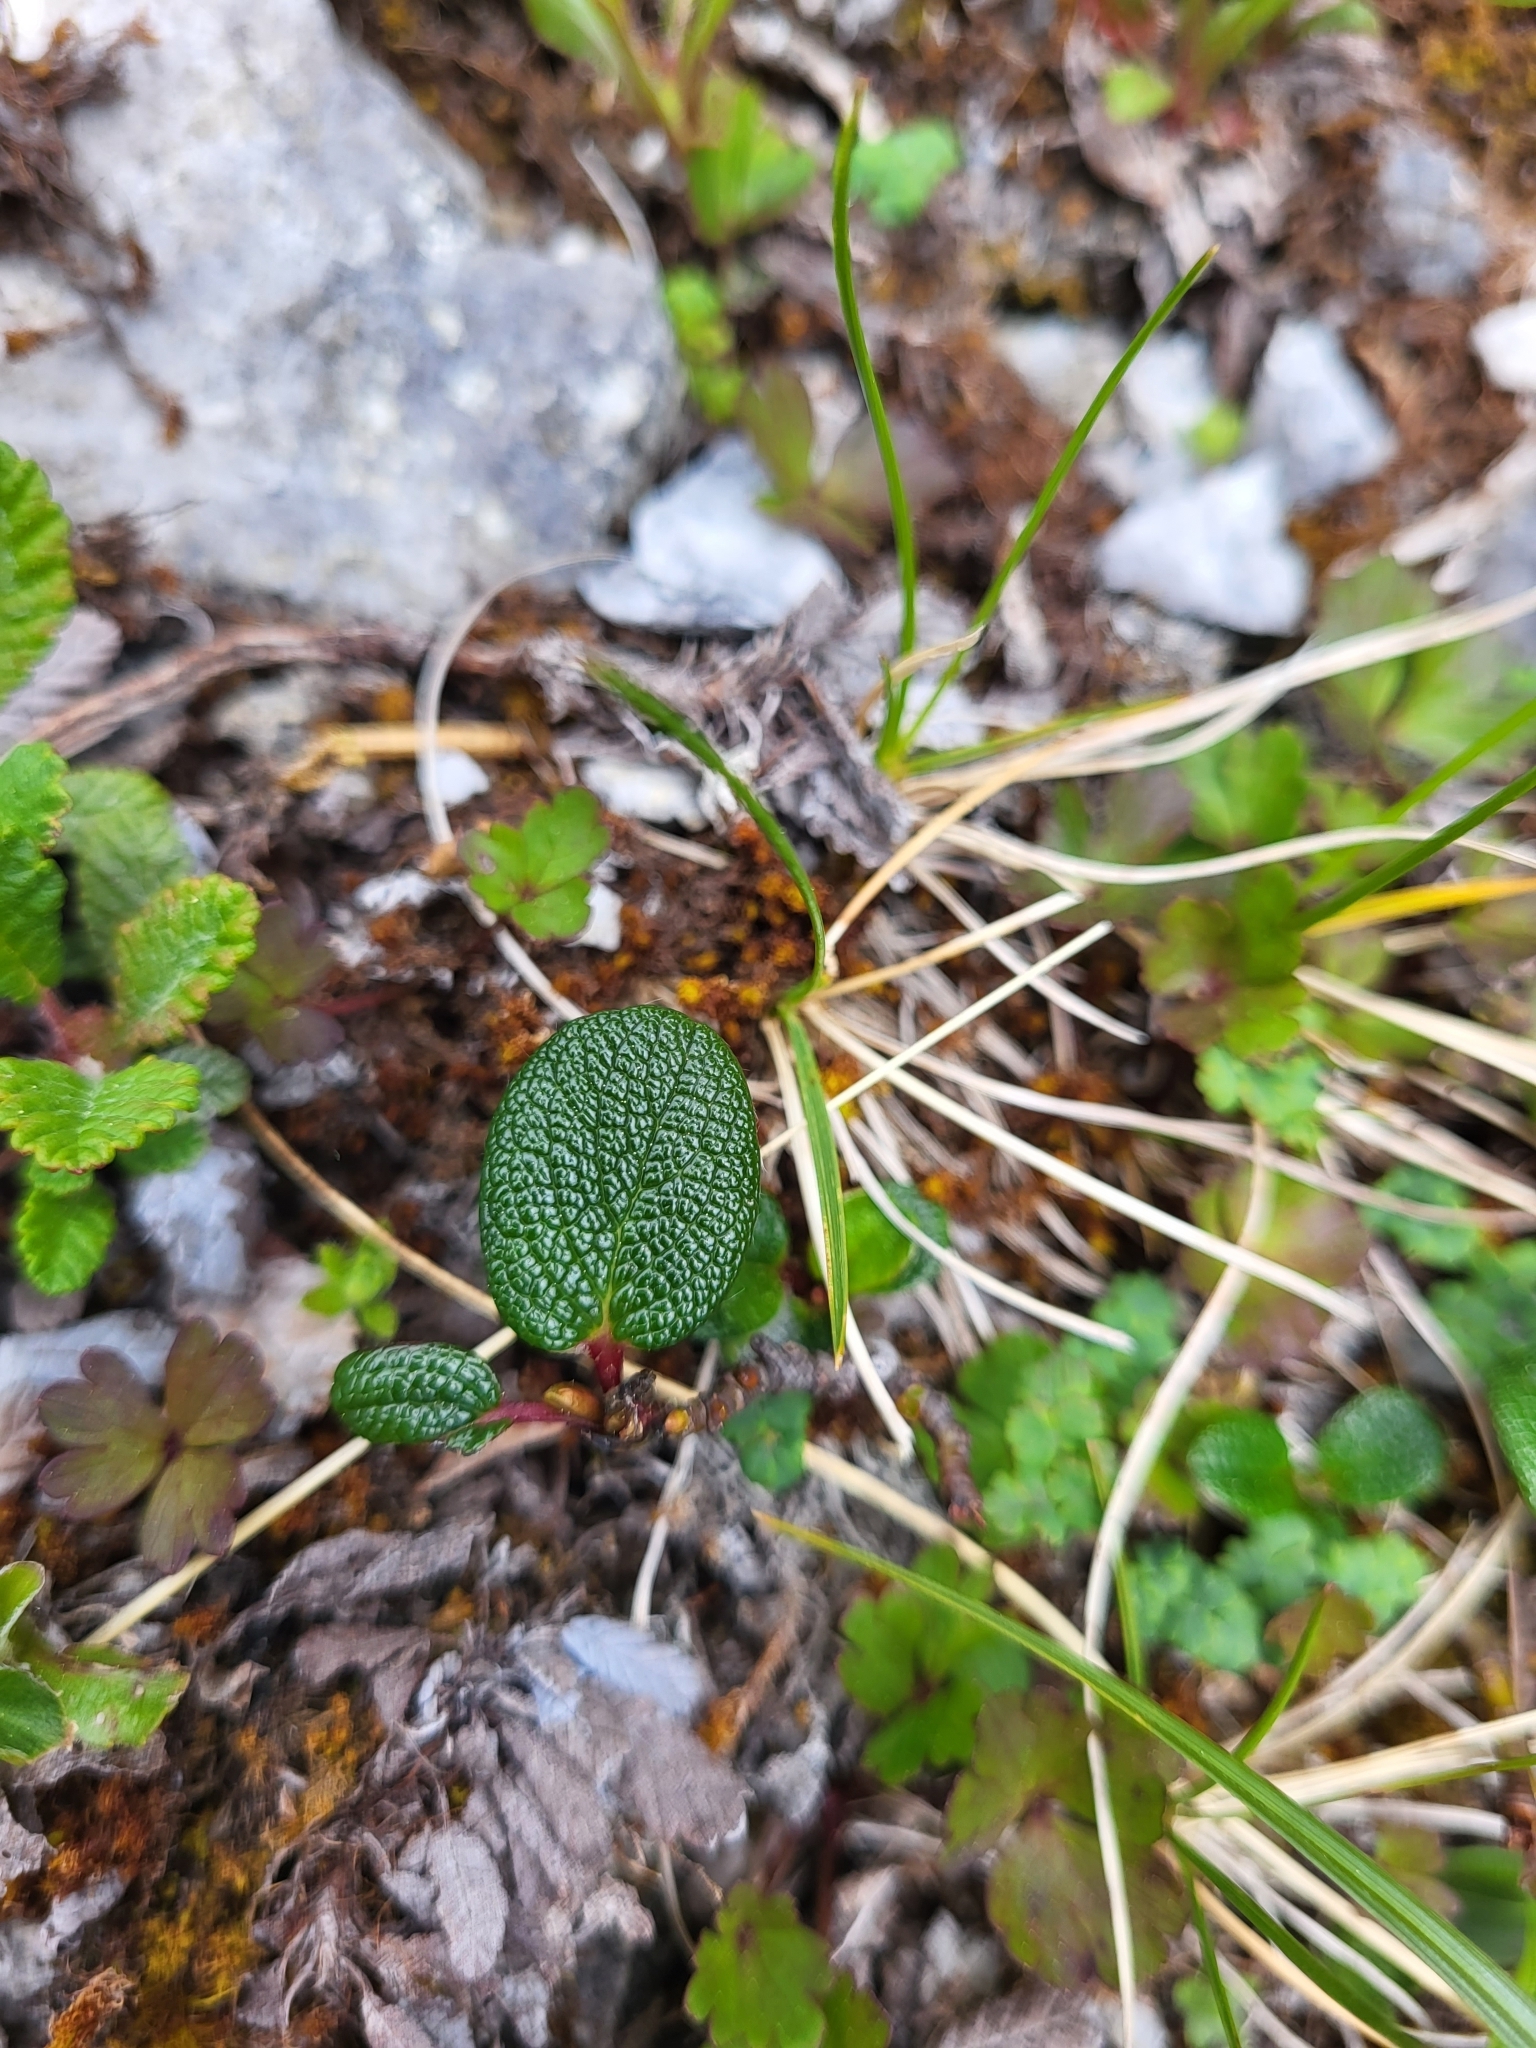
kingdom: Plantae
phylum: Tracheophyta
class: Magnoliopsida
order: Malpighiales
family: Salicaceae
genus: Salix
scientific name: Salix reticulata
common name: Net-leaved willow
